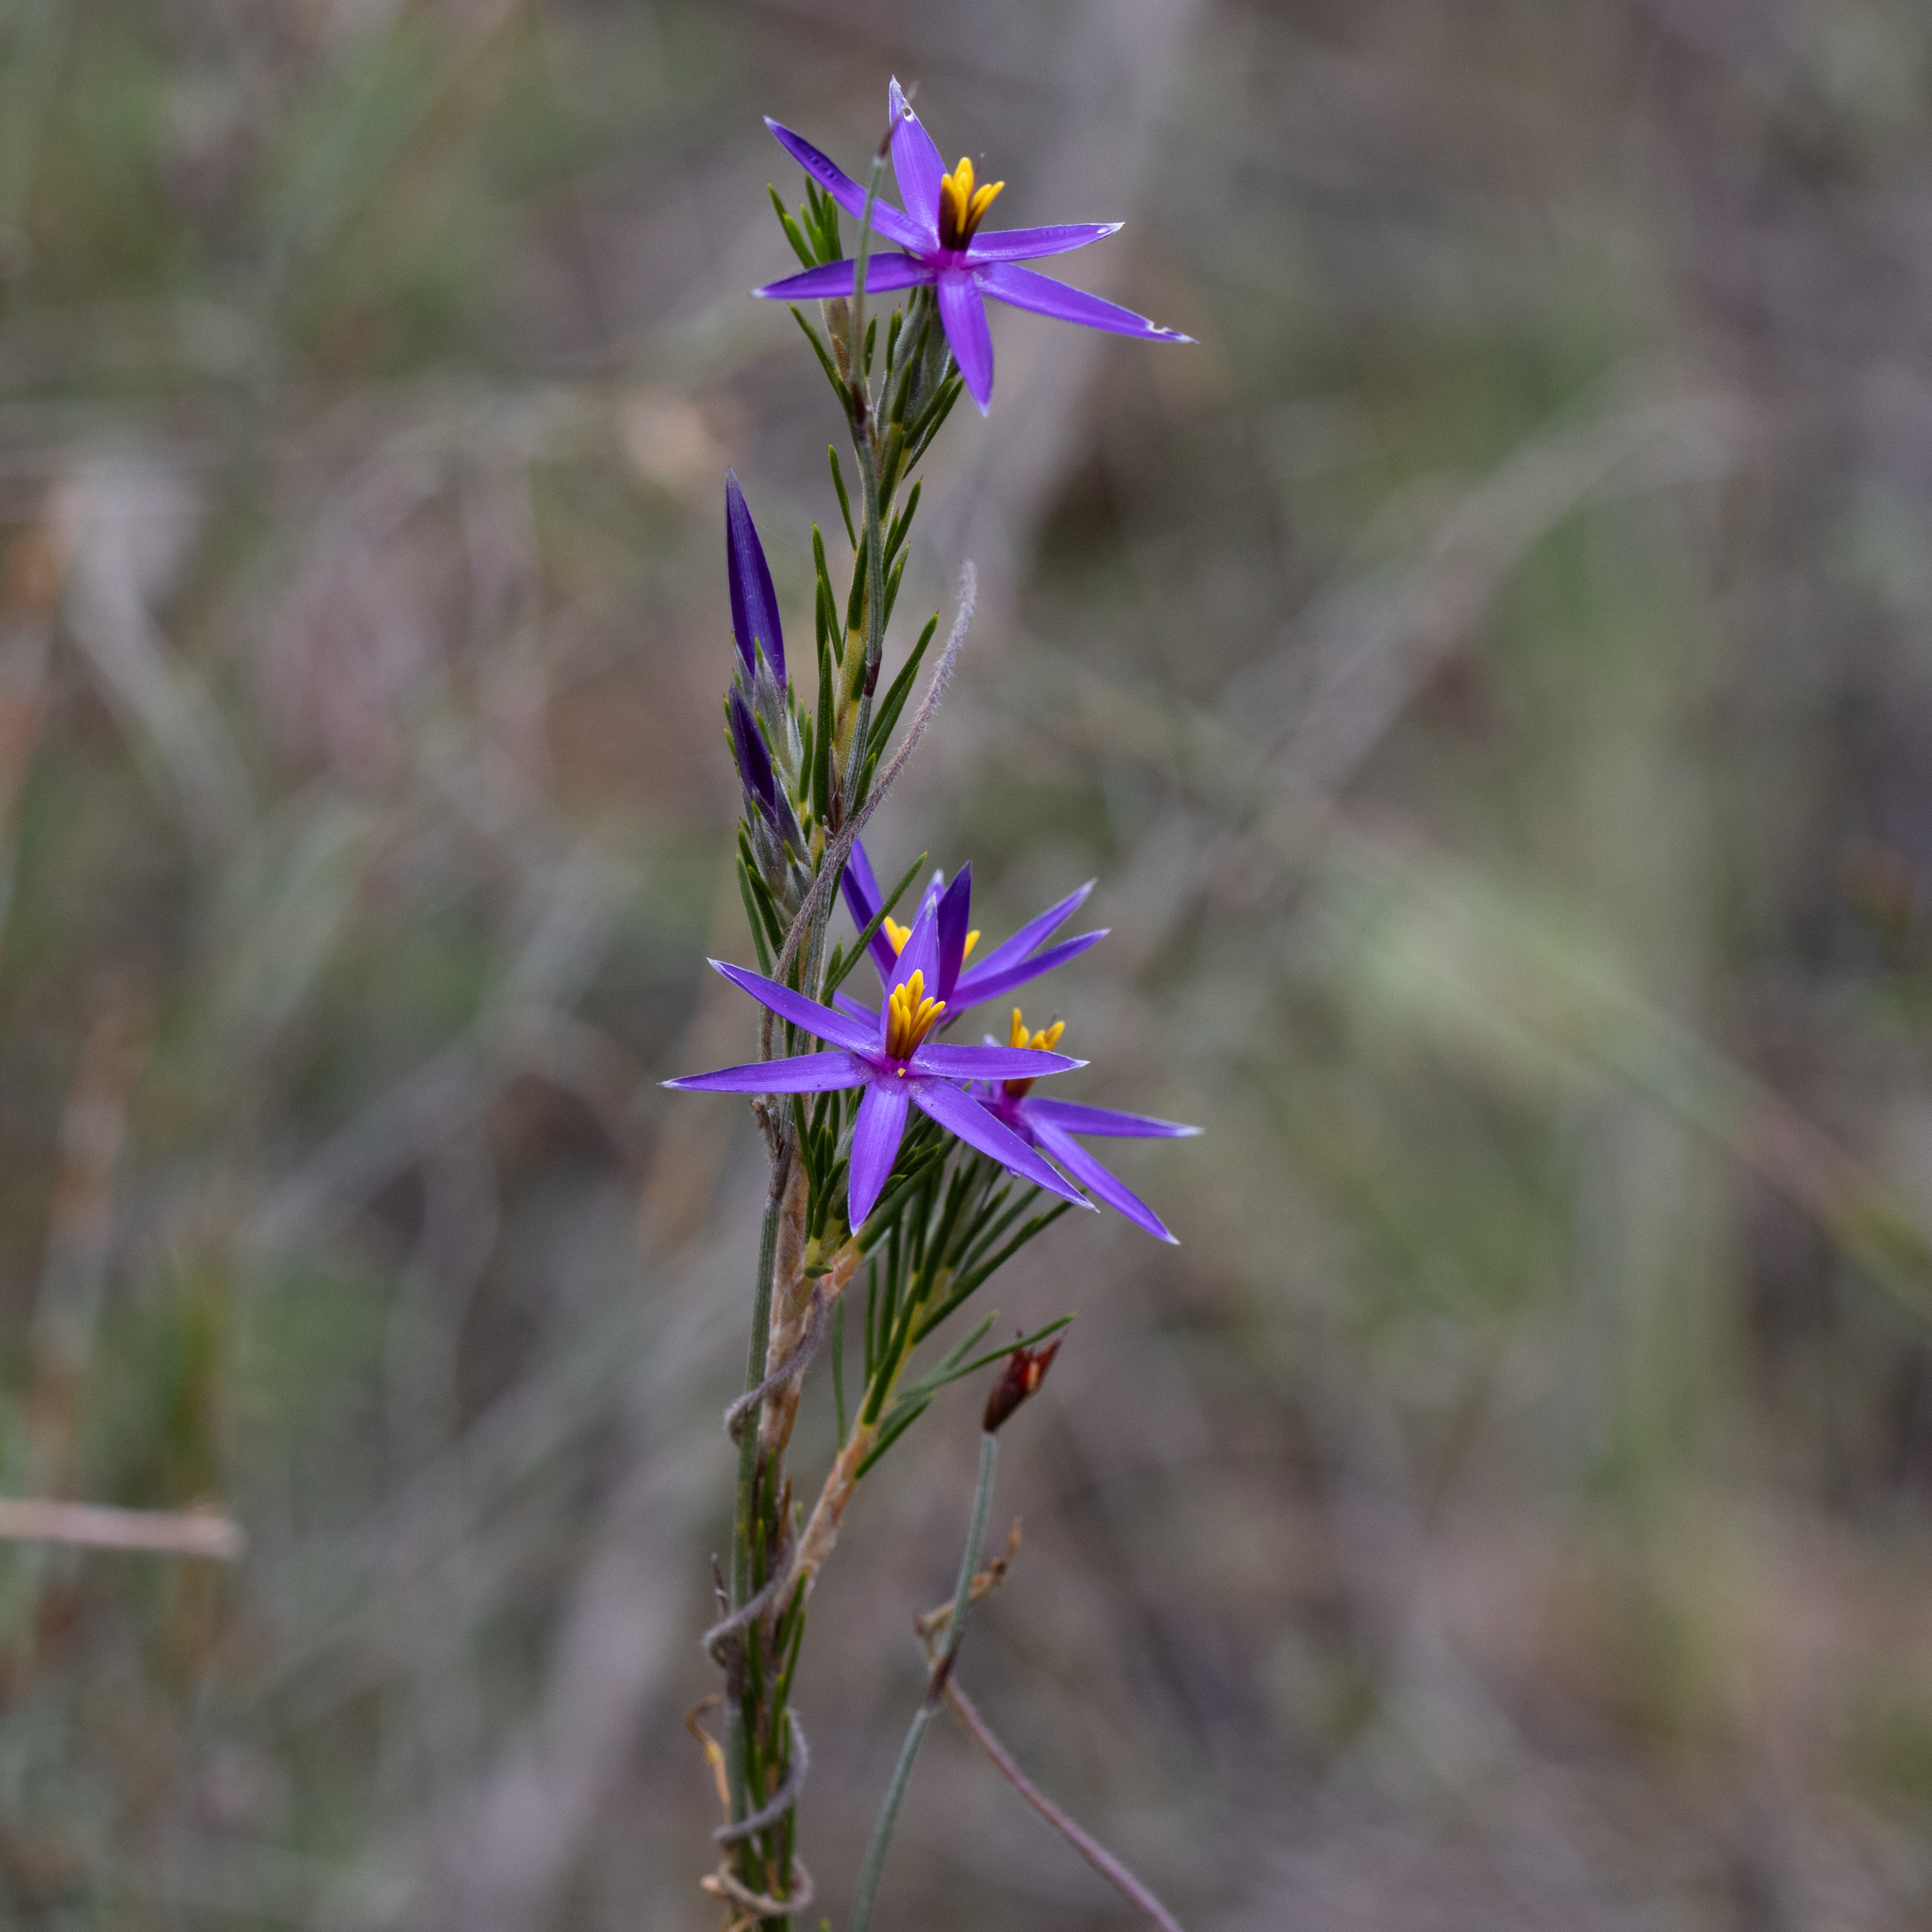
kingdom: Plantae
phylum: Tracheophyta
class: Liliopsida
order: Arecales
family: Dasypogonaceae
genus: Calectasia
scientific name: Calectasia intermedia
